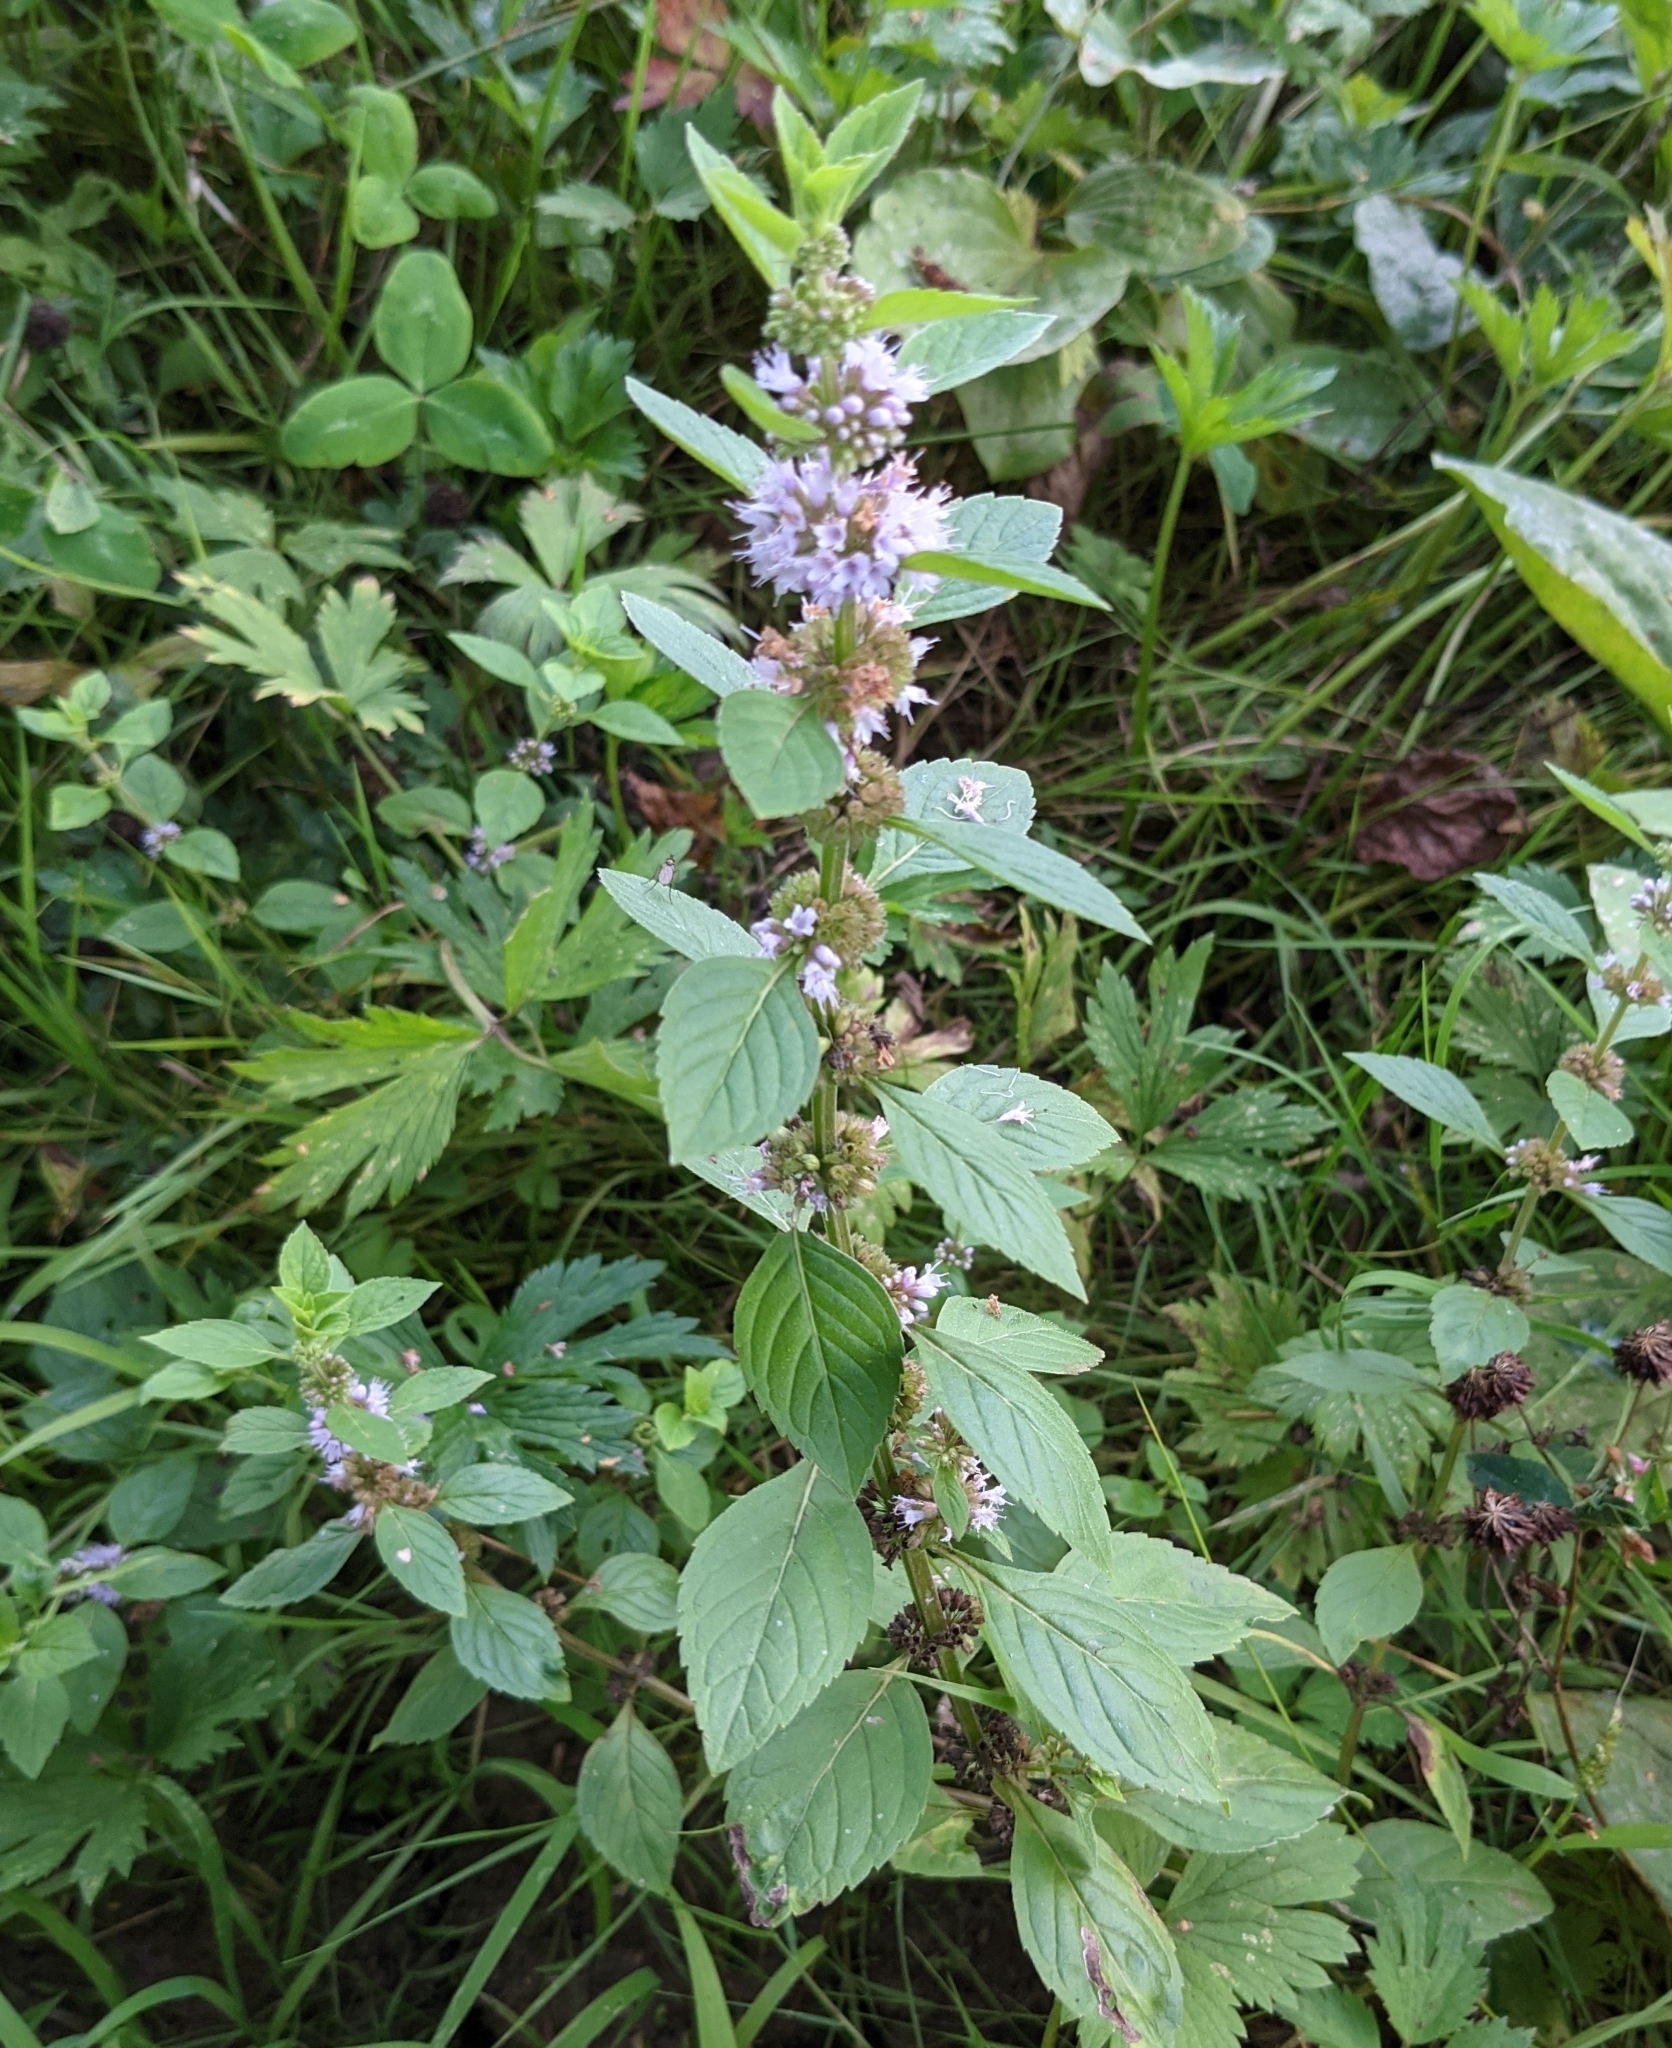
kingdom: Plantae
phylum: Tracheophyta
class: Magnoliopsida
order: Lamiales
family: Lamiaceae
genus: Mentha
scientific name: Mentha arvensis
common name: Corn mint
